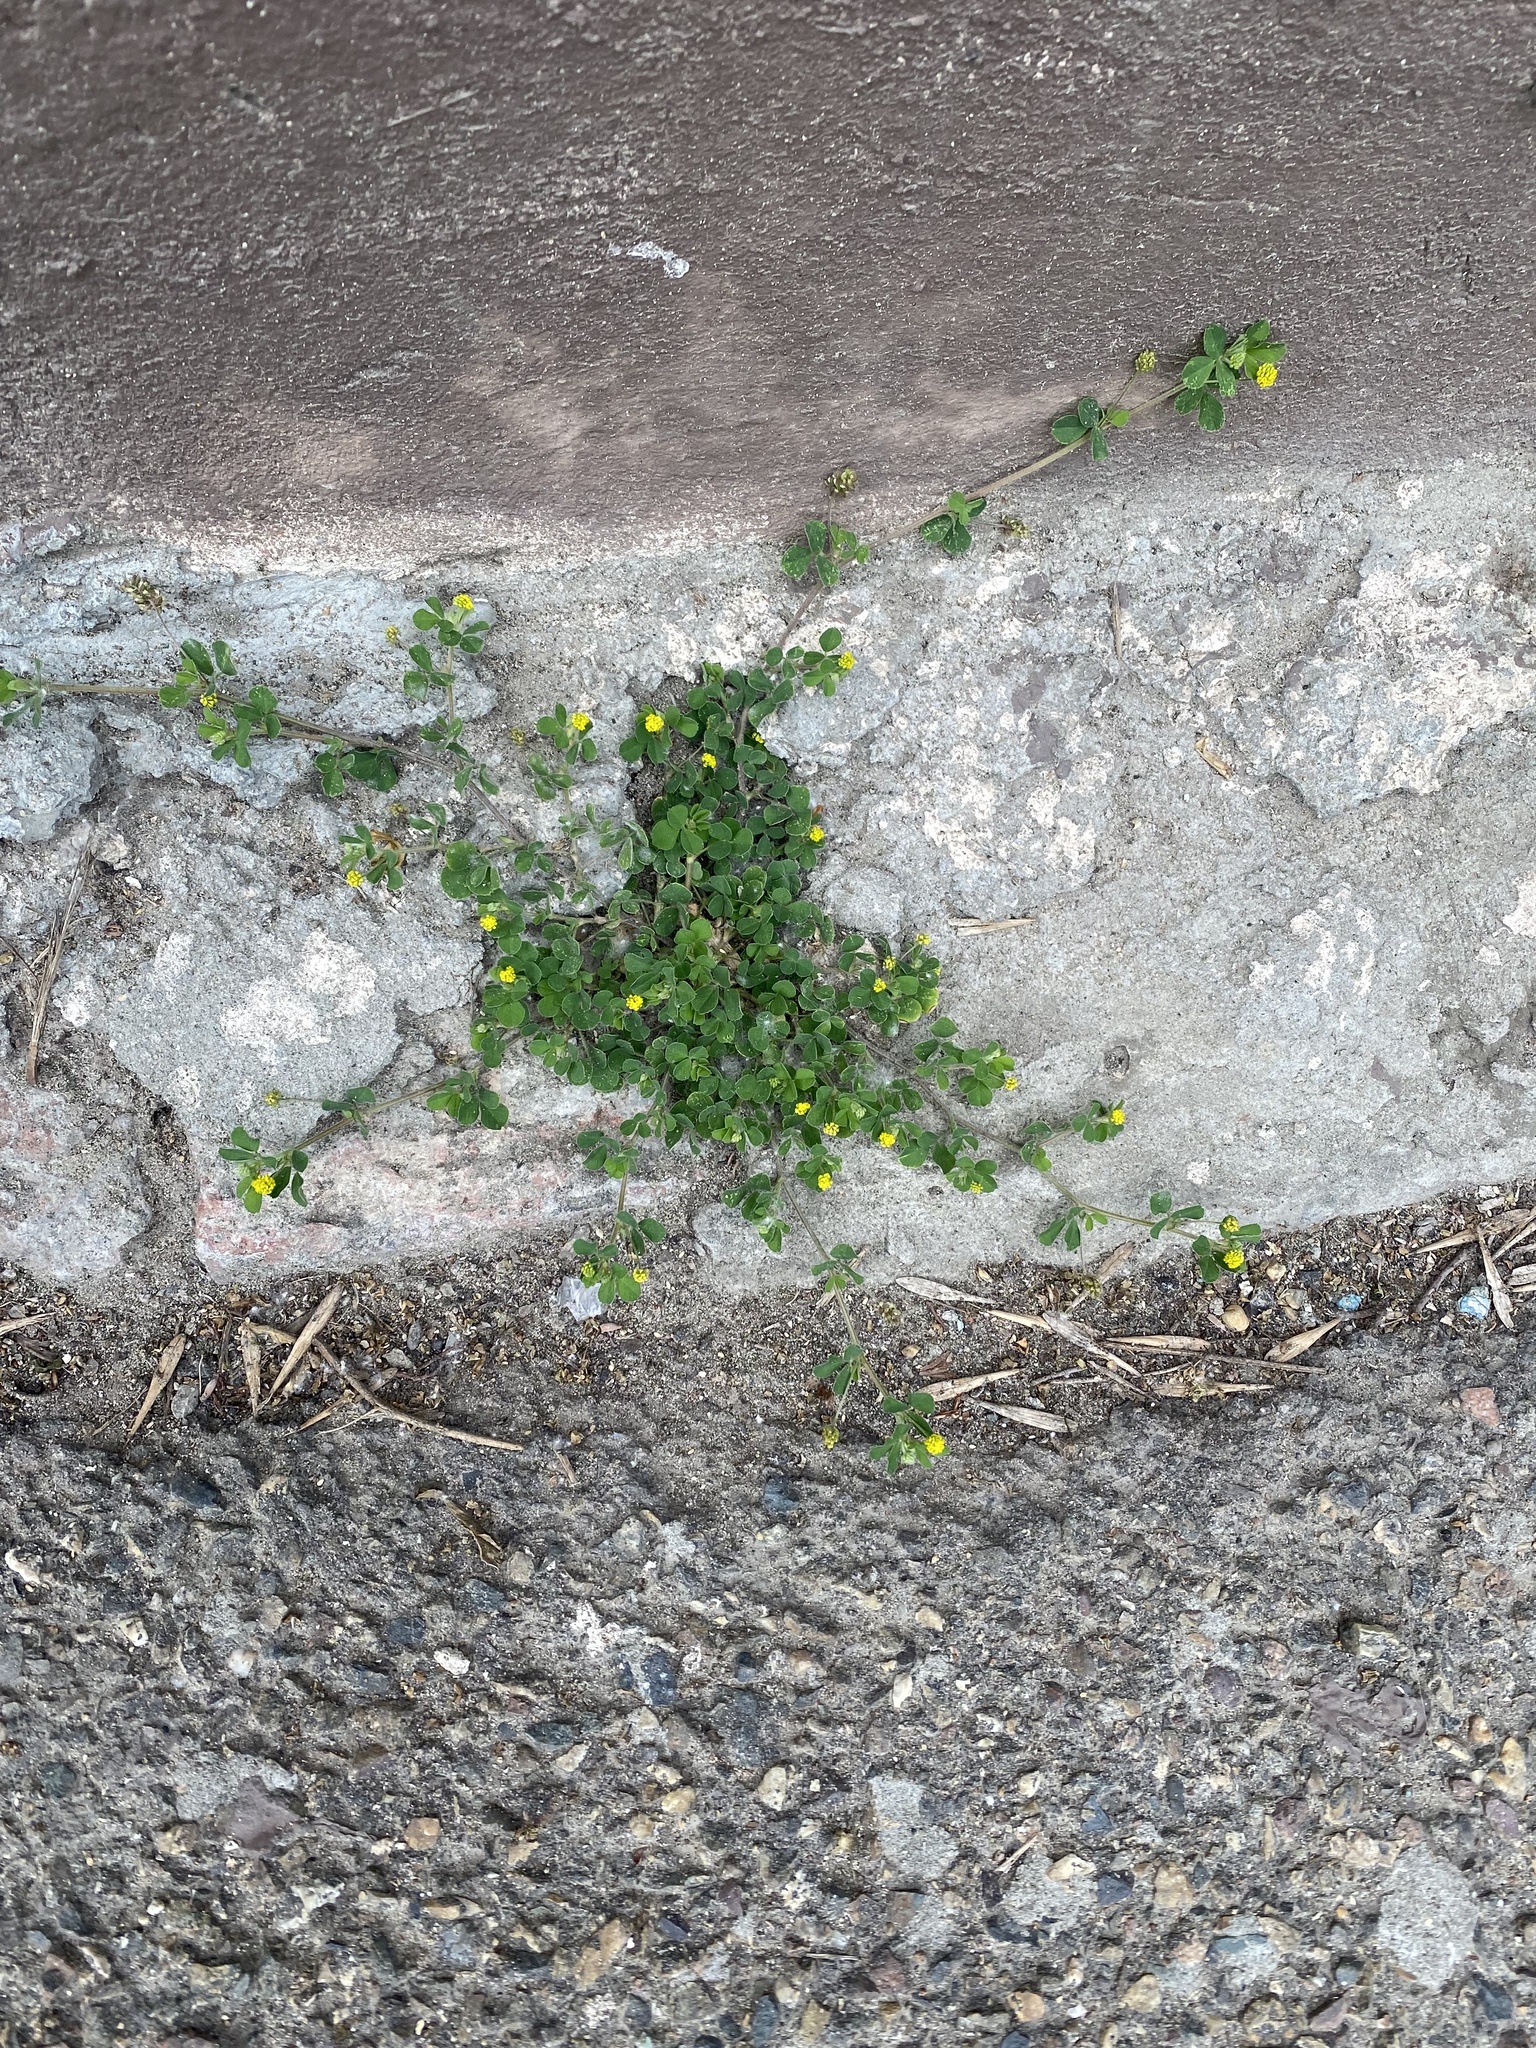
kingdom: Plantae
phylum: Tracheophyta
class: Magnoliopsida
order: Fabales
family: Fabaceae
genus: Medicago
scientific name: Medicago lupulina
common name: Black medick
